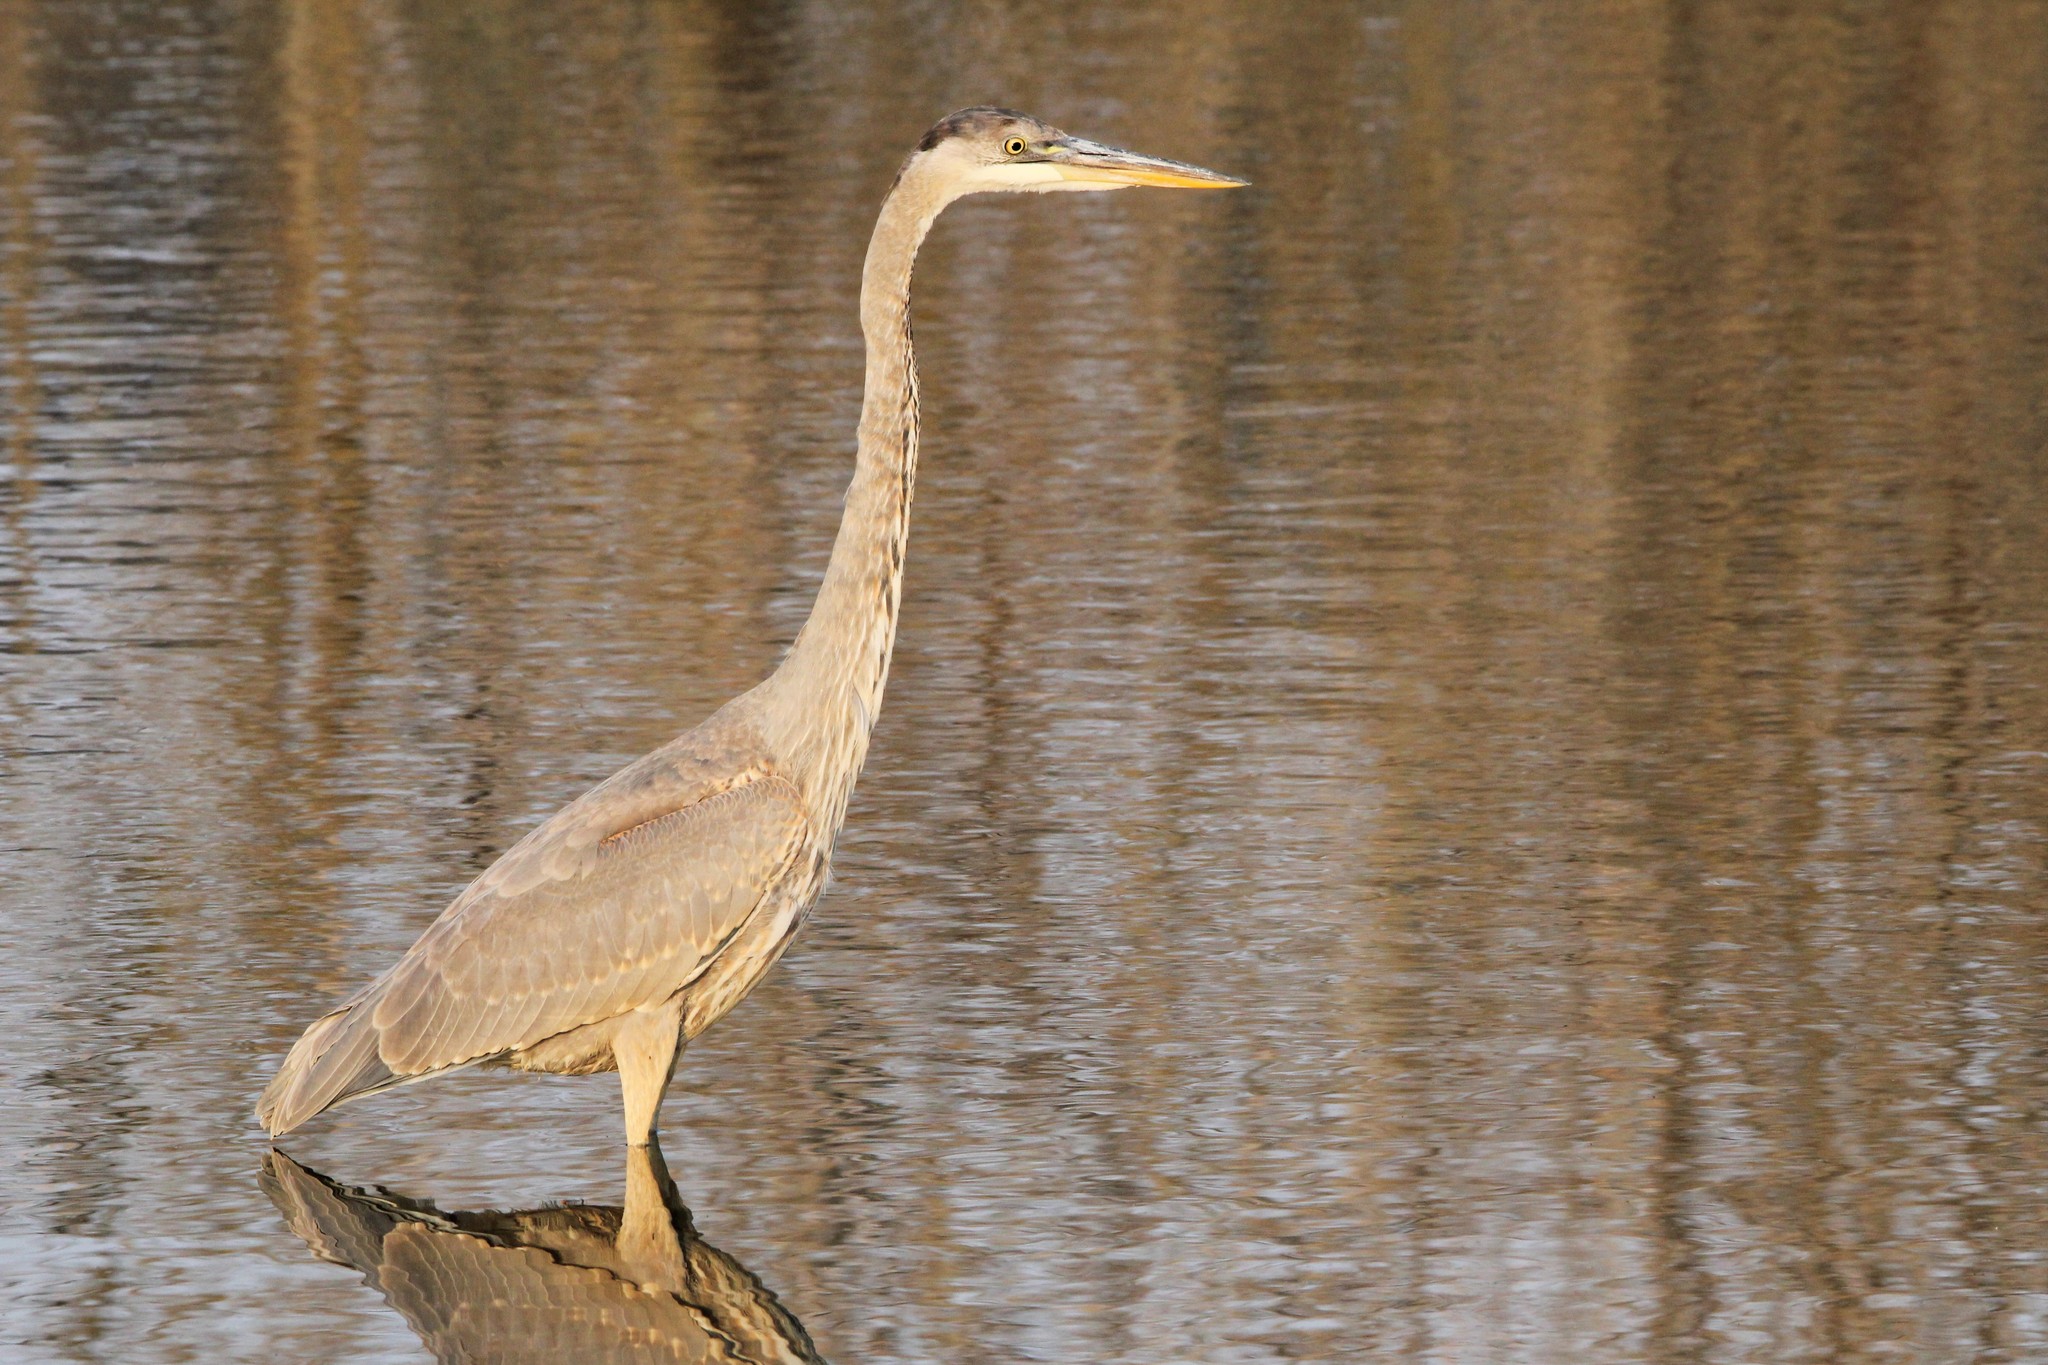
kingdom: Animalia
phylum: Chordata
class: Aves
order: Pelecaniformes
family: Ardeidae
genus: Ardea
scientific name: Ardea herodias
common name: Great blue heron
